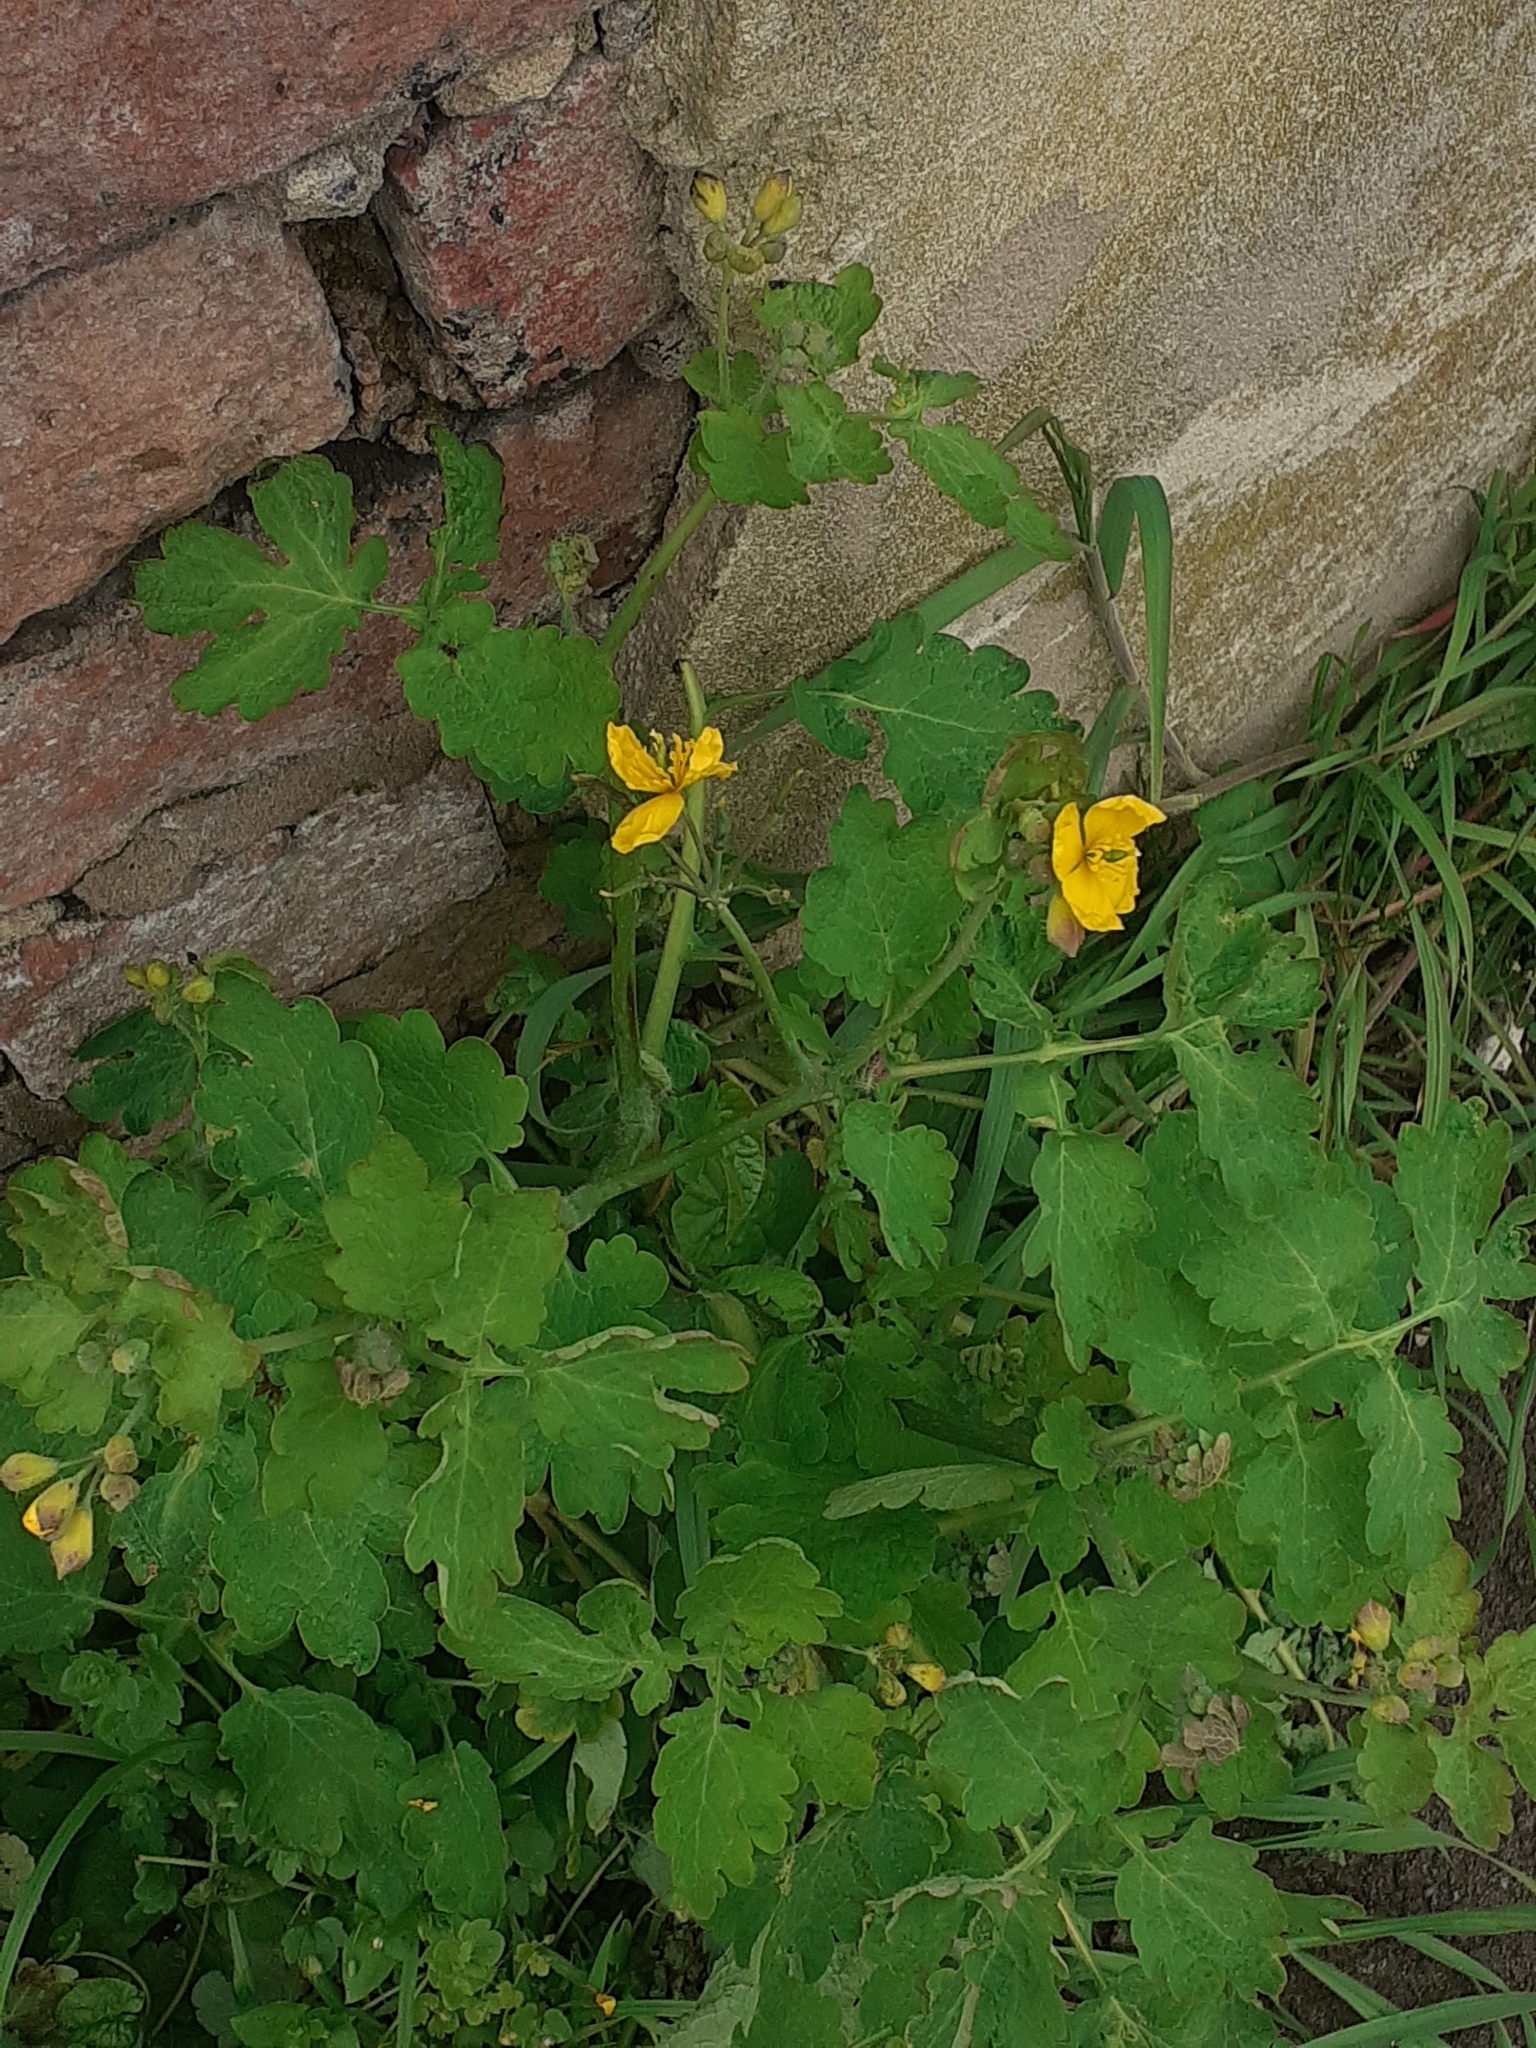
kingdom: Plantae
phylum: Tracheophyta
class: Magnoliopsida
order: Ranunculales
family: Papaveraceae
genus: Chelidonium
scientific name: Chelidonium majus
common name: Greater celandine
